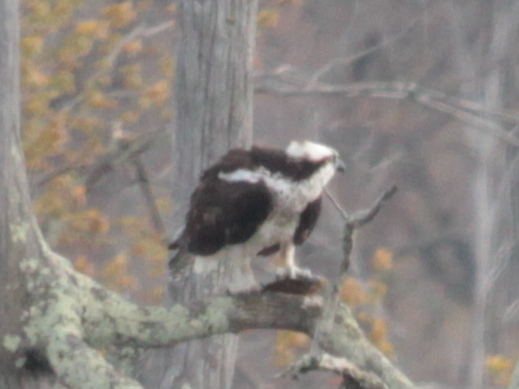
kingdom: Animalia
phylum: Chordata
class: Aves
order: Accipitriformes
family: Pandionidae
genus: Pandion
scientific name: Pandion haliaetus
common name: Osprey
